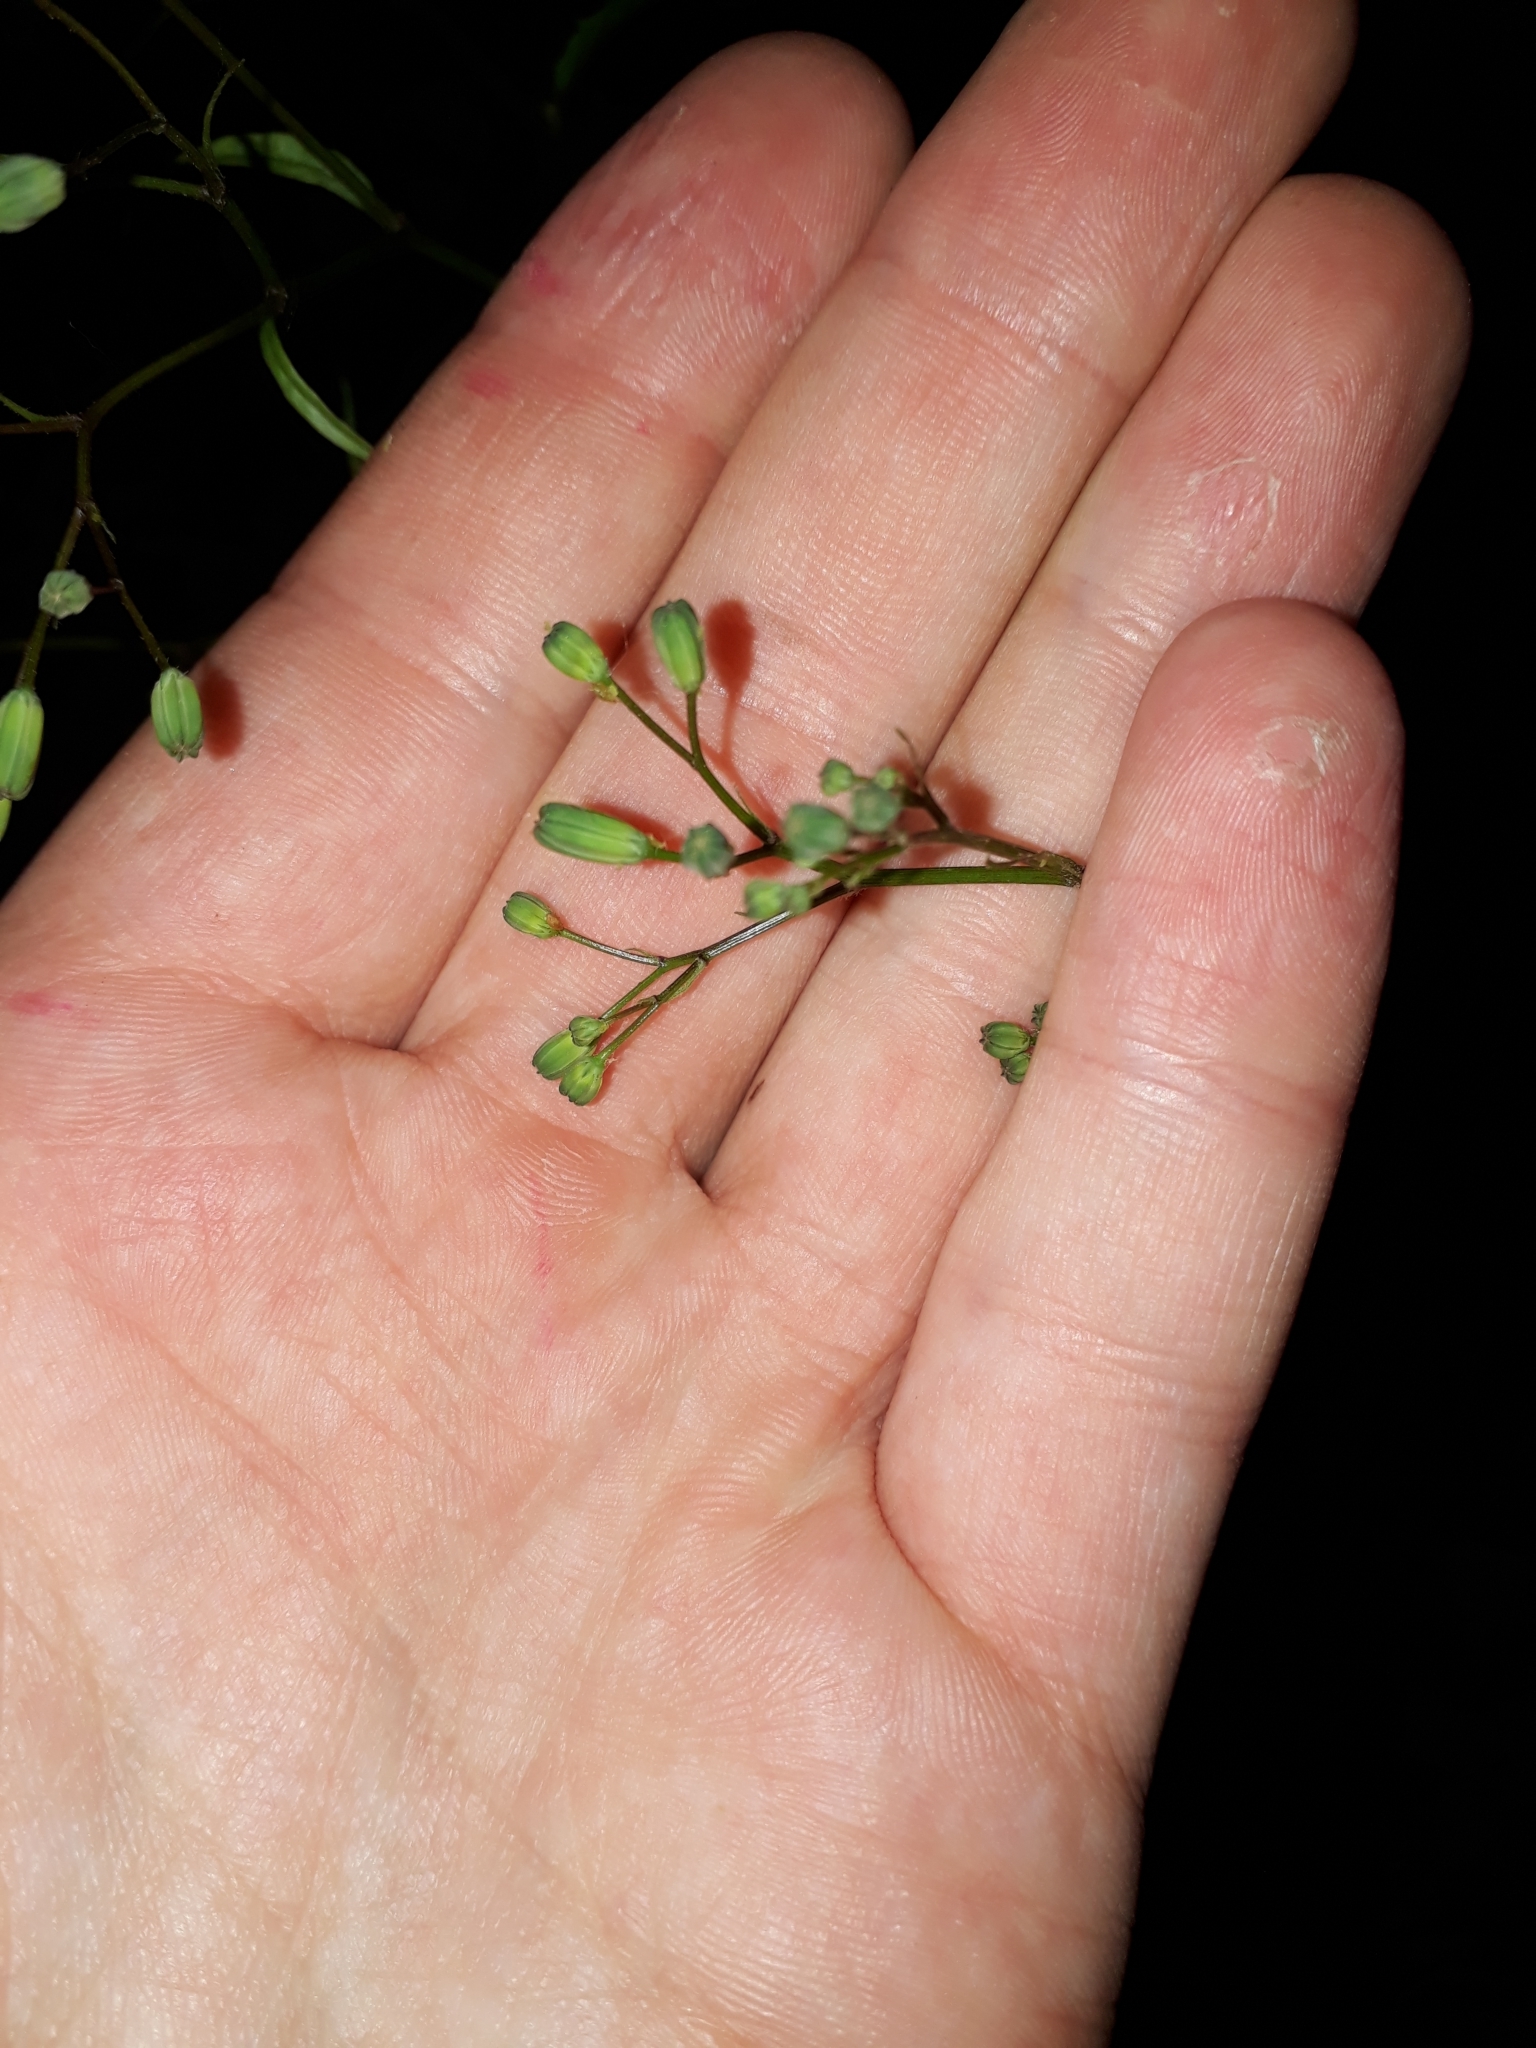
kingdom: Plantae
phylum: Tracheophyta
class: Magnoliopsida
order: Asterales
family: Asteraceae
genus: Lapsana
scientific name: Lapsana communis
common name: Nipplewort
